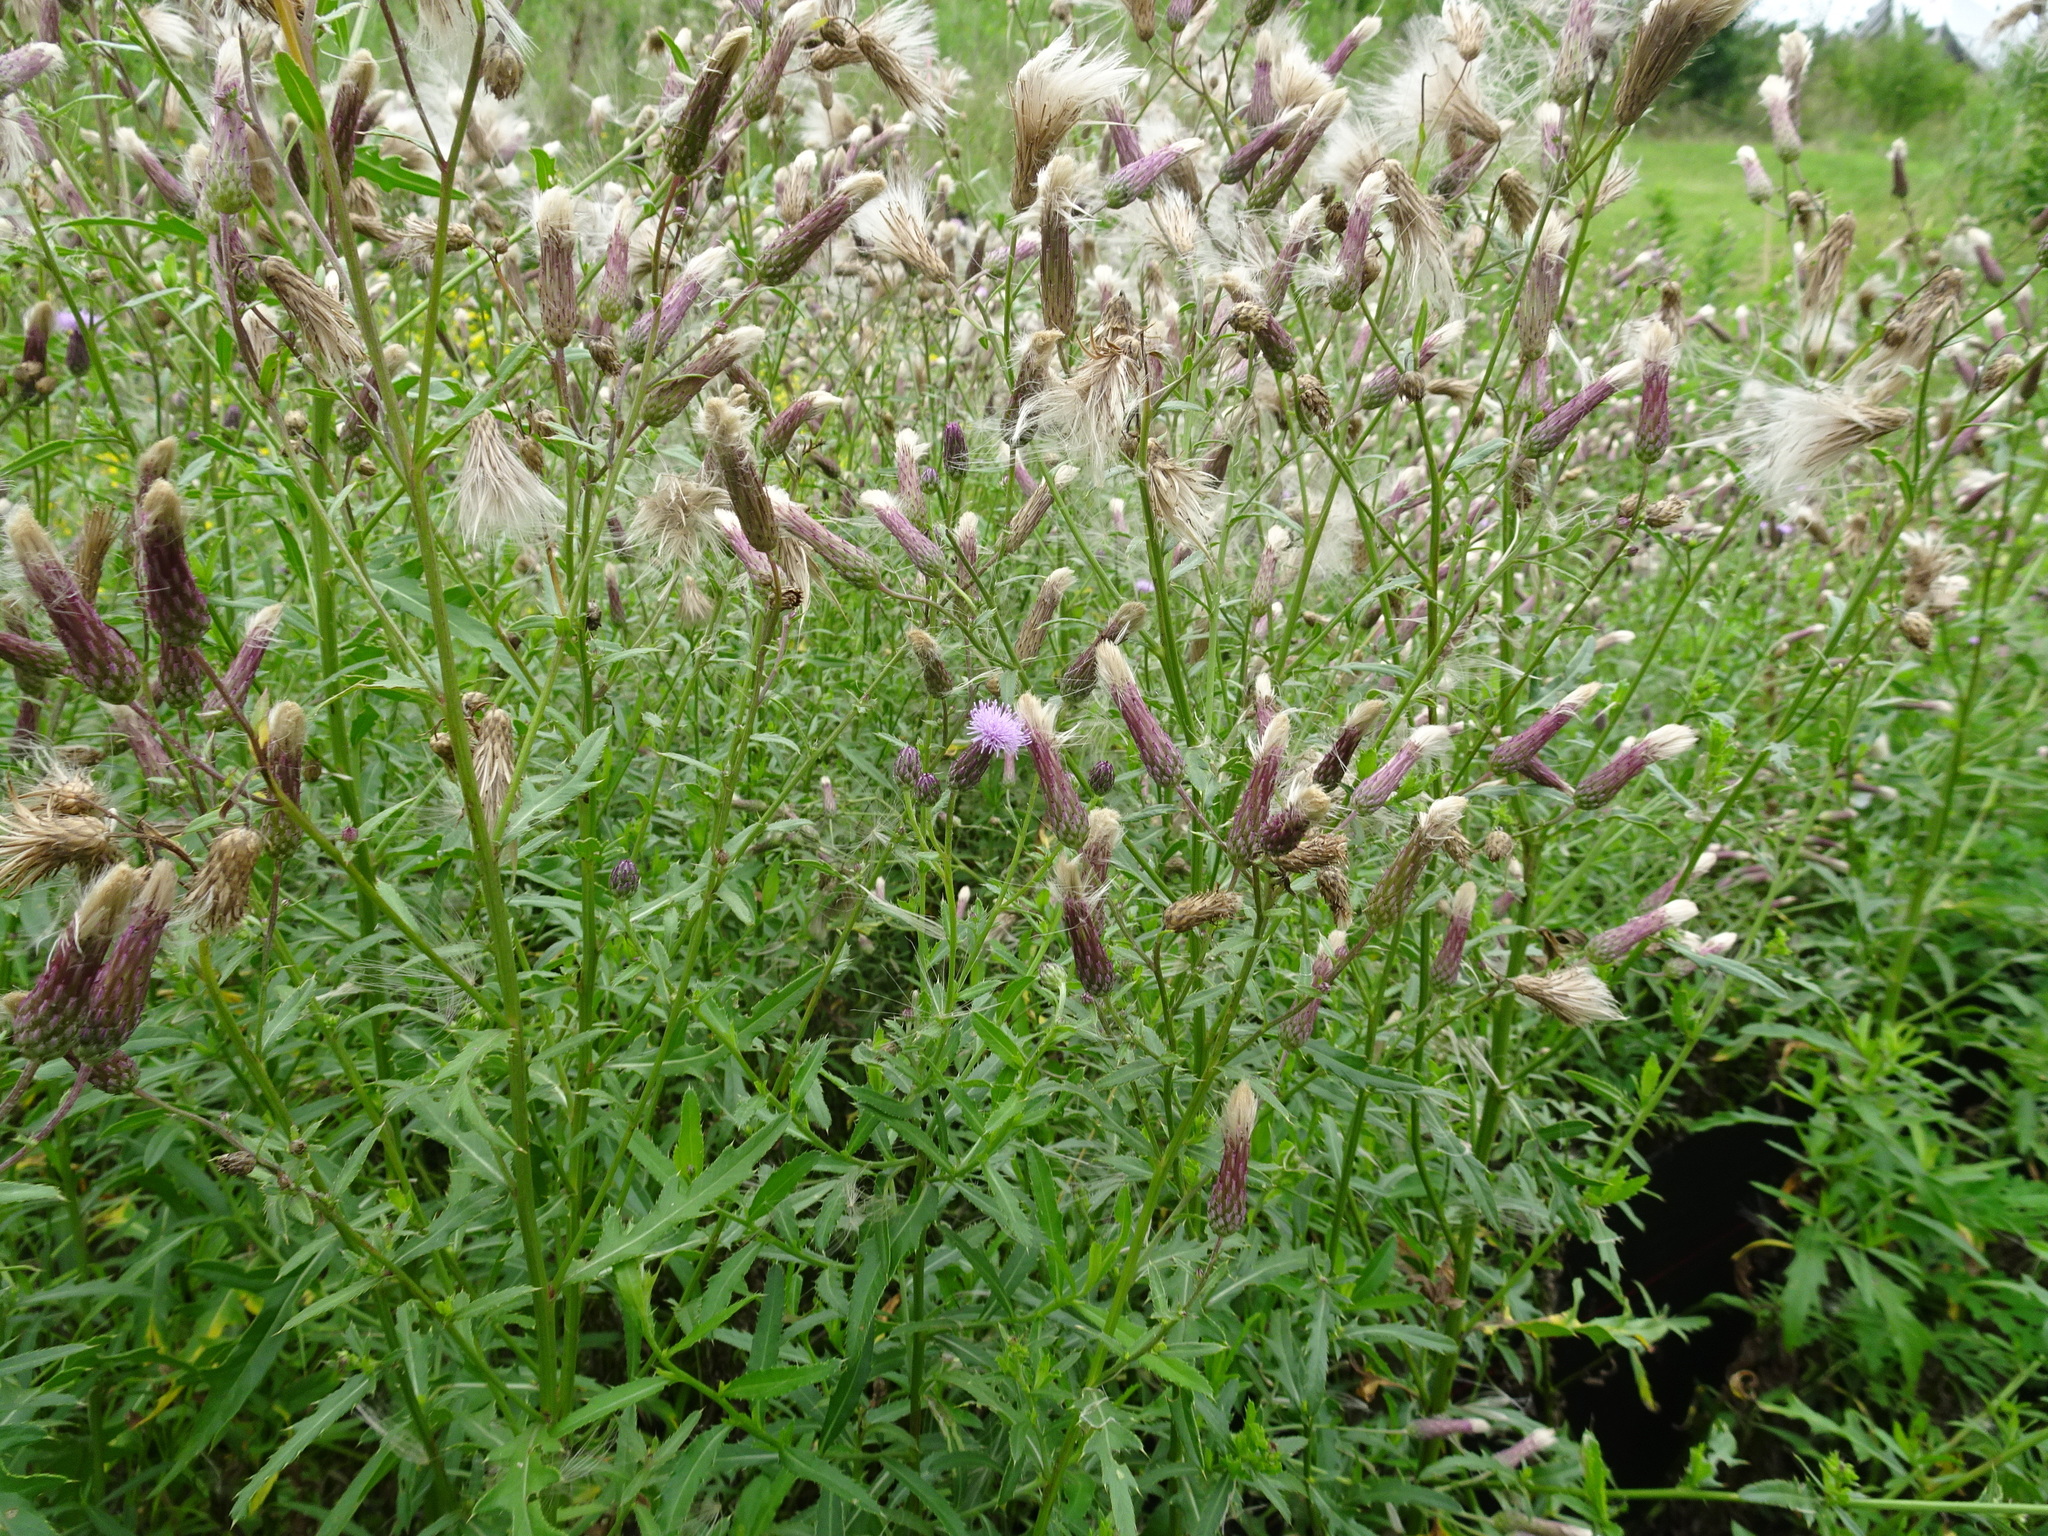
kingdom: Plantae
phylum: Tracheophyta
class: Magnoliopsida
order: Asterales
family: Asteraceae
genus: Cirsium
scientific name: Cirsium arvense
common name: Creeping thistle
